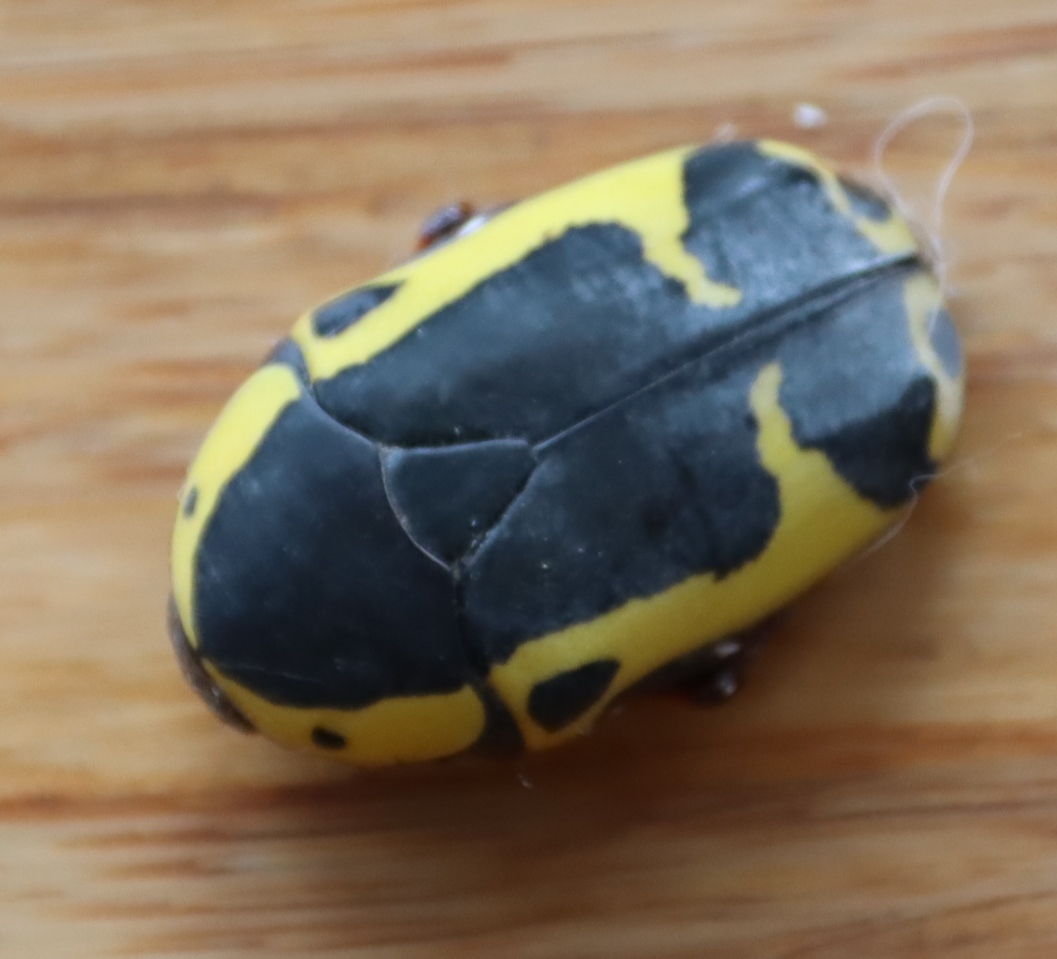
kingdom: Animalia
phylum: Arthropoda
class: Insecta
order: Coleoptera
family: Scarabaeidae
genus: Pachnoda
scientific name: Pachnoda sinuata
